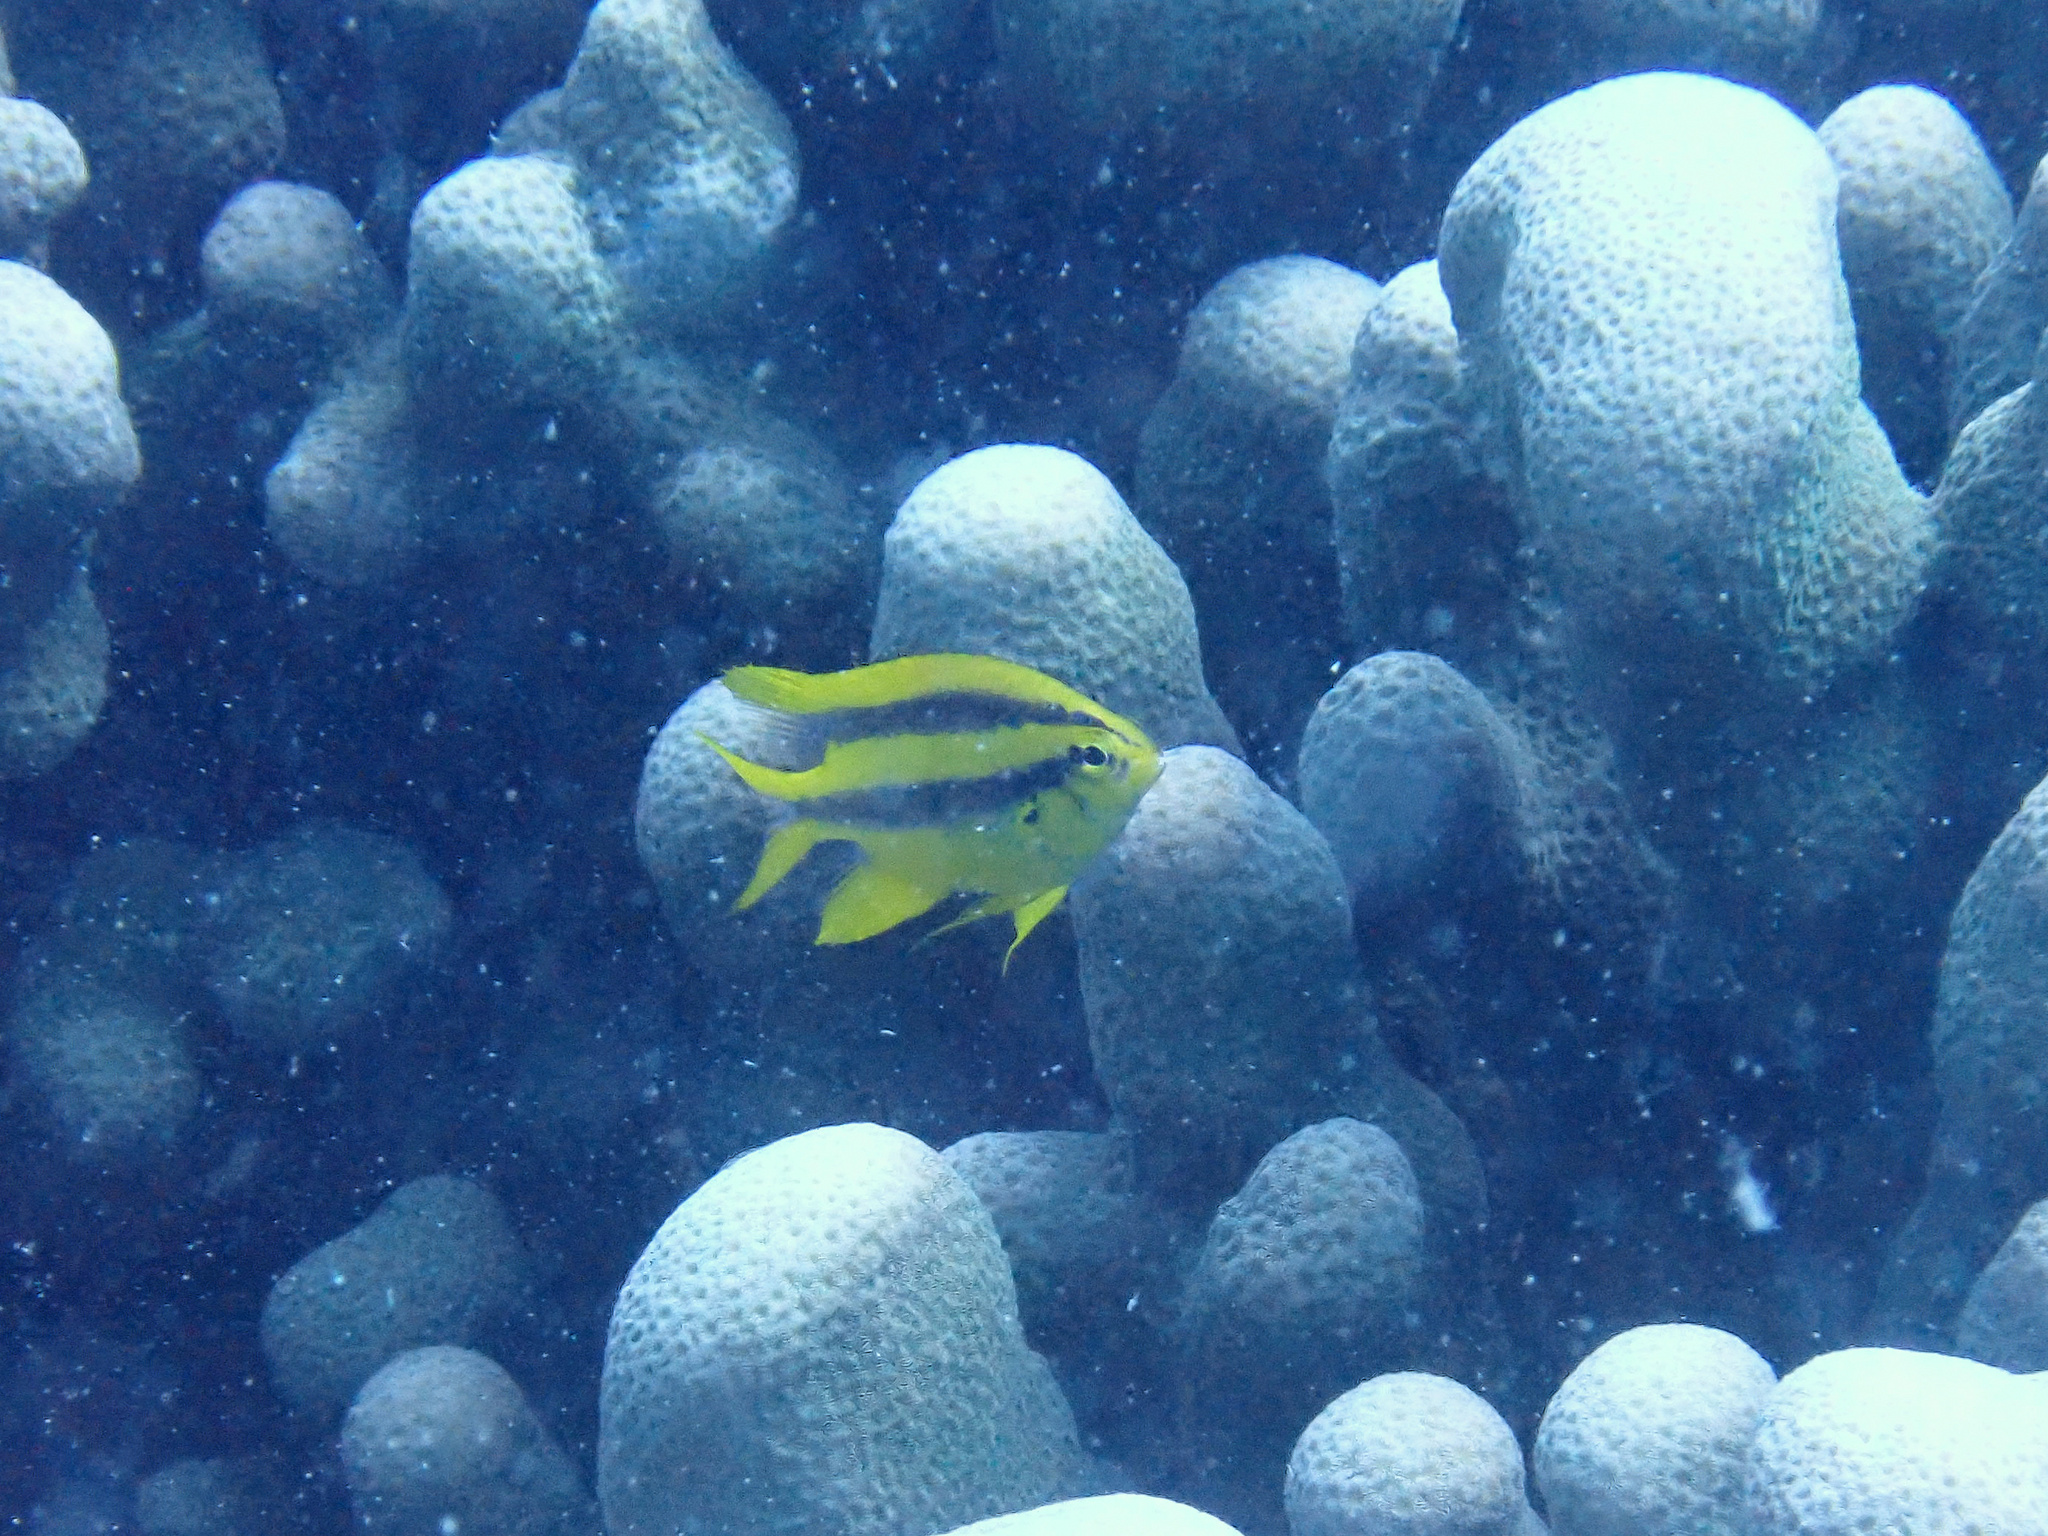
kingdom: Animalia
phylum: Chordata
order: Perciformes
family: Pomacentridae
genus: Neoglyphidodon
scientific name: Neoglyphidodon nigroris
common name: Behn's damsel
